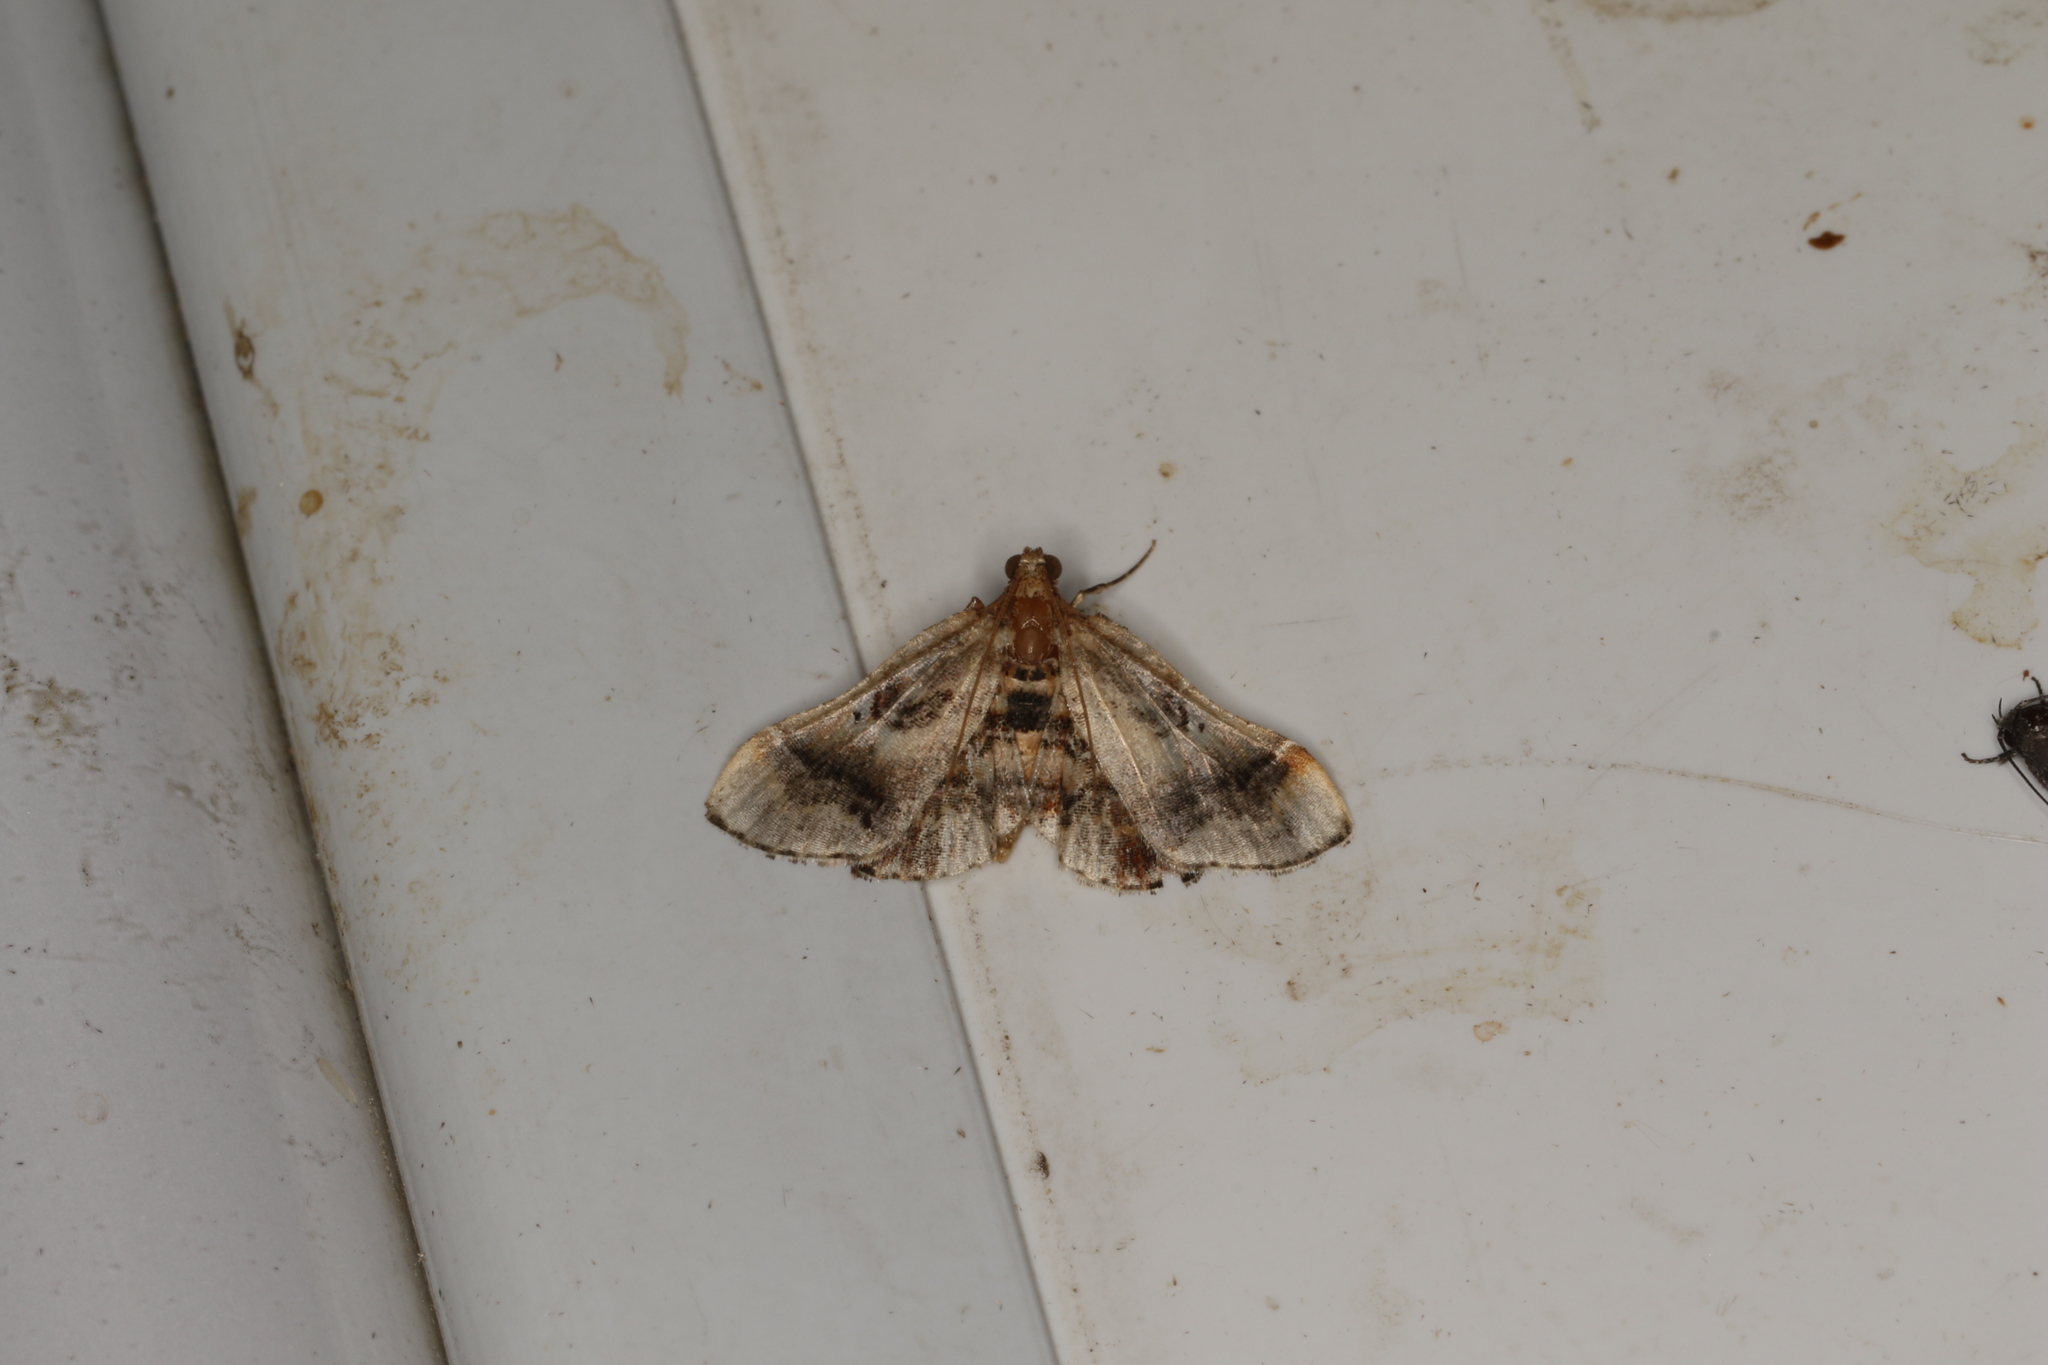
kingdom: Animalia
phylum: Arthropoda
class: Insecta
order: Lepidoptera
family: Pyralidae
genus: Scenedra
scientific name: Scenedra decoratalis
